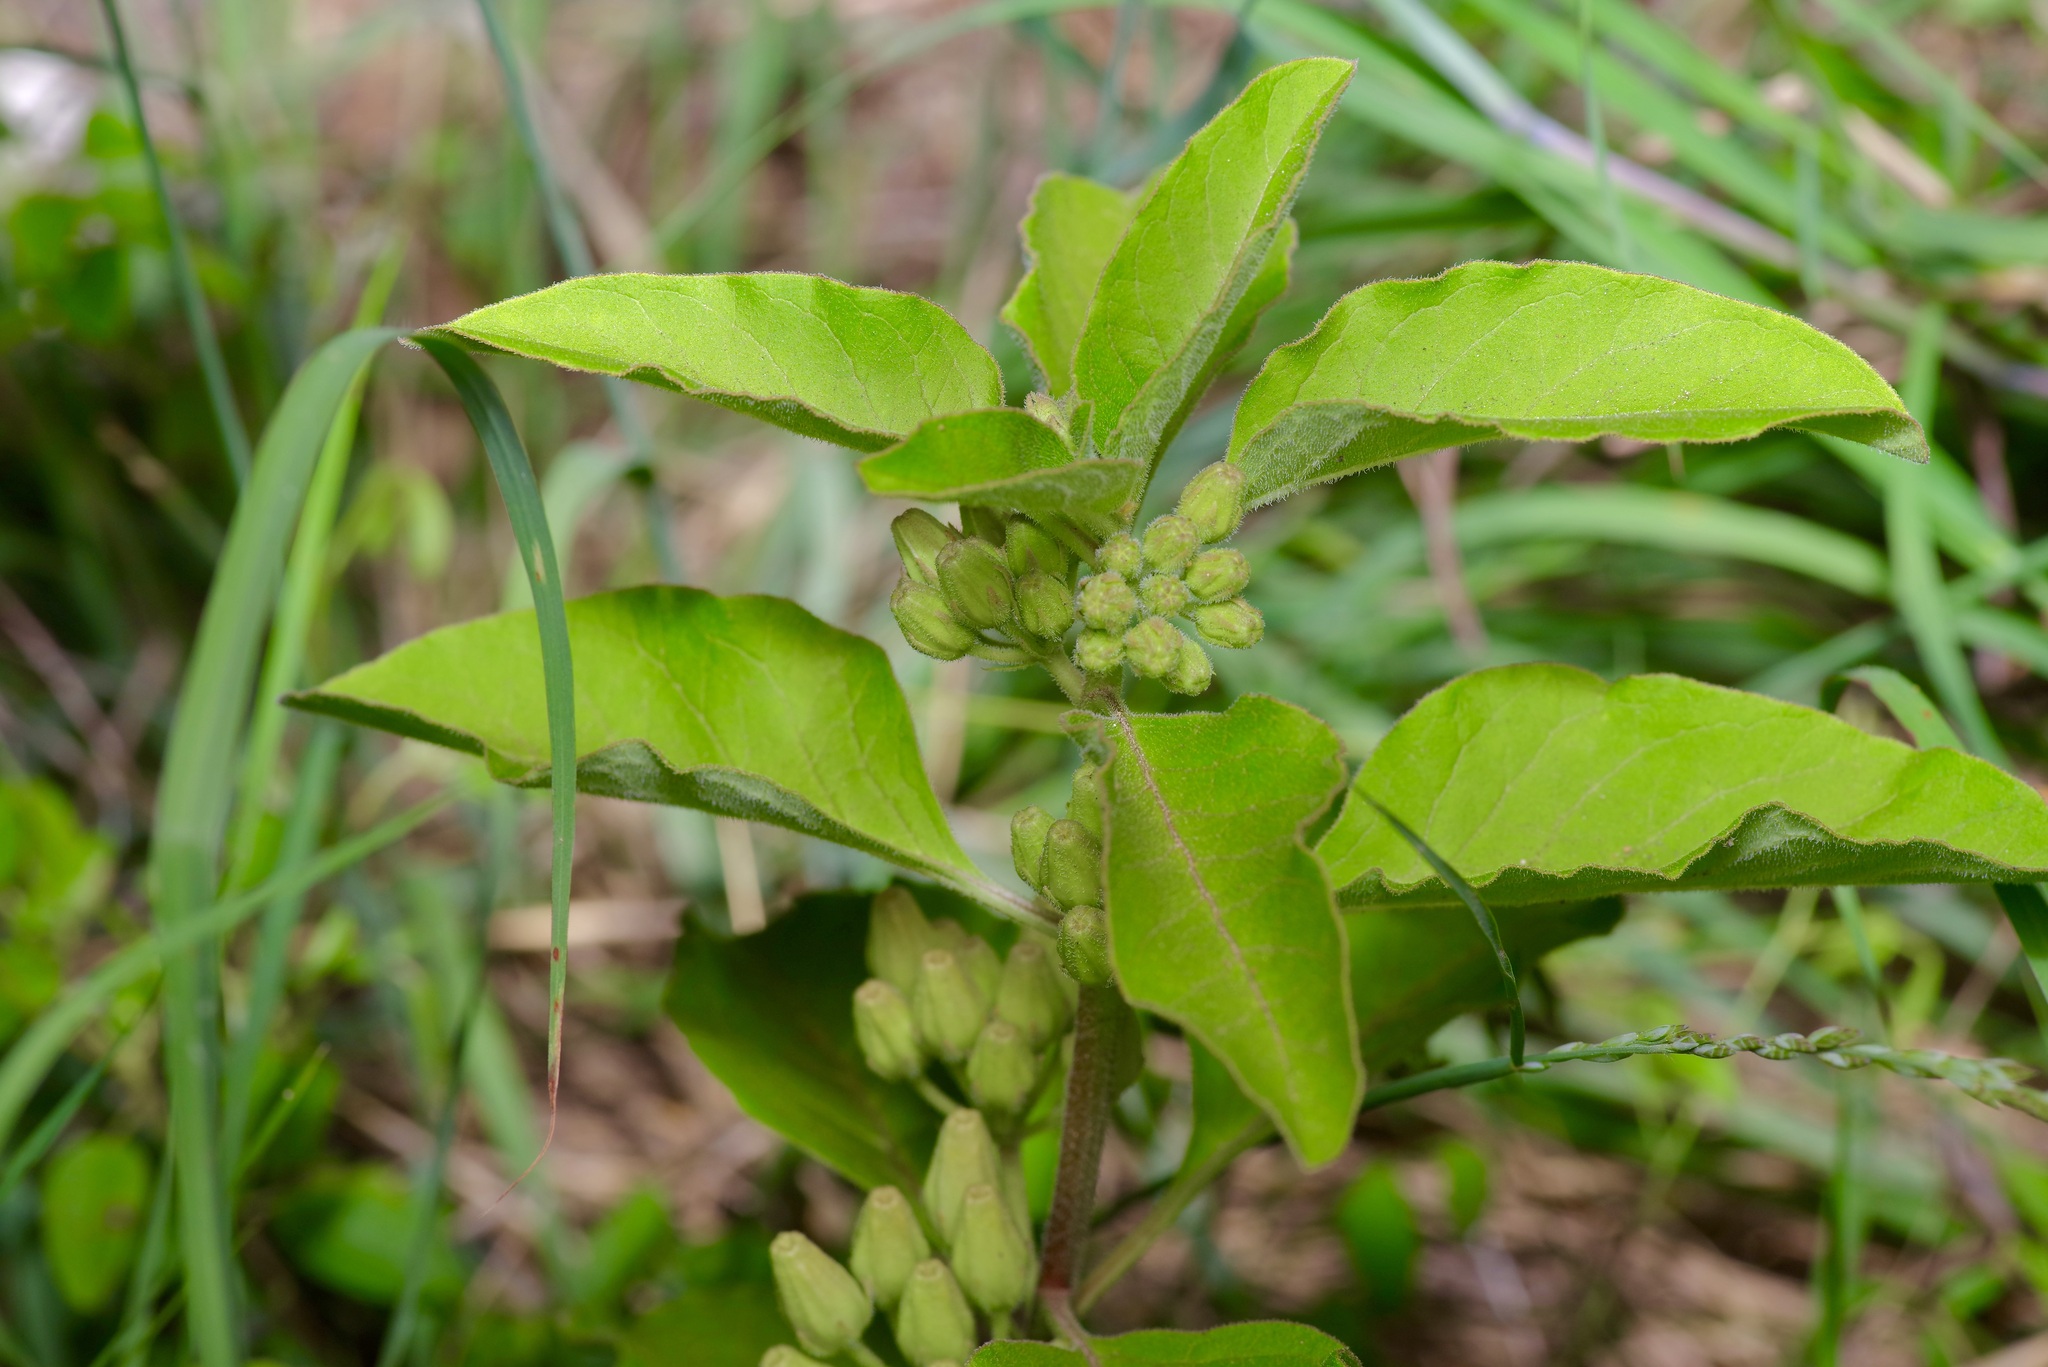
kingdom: Plantae
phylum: Tracheophyta
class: Magnoliopsida
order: Gentianales
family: Apocynaceae
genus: Asclepias
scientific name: Asclepias oenotheroides
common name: Zizotes milkweed
